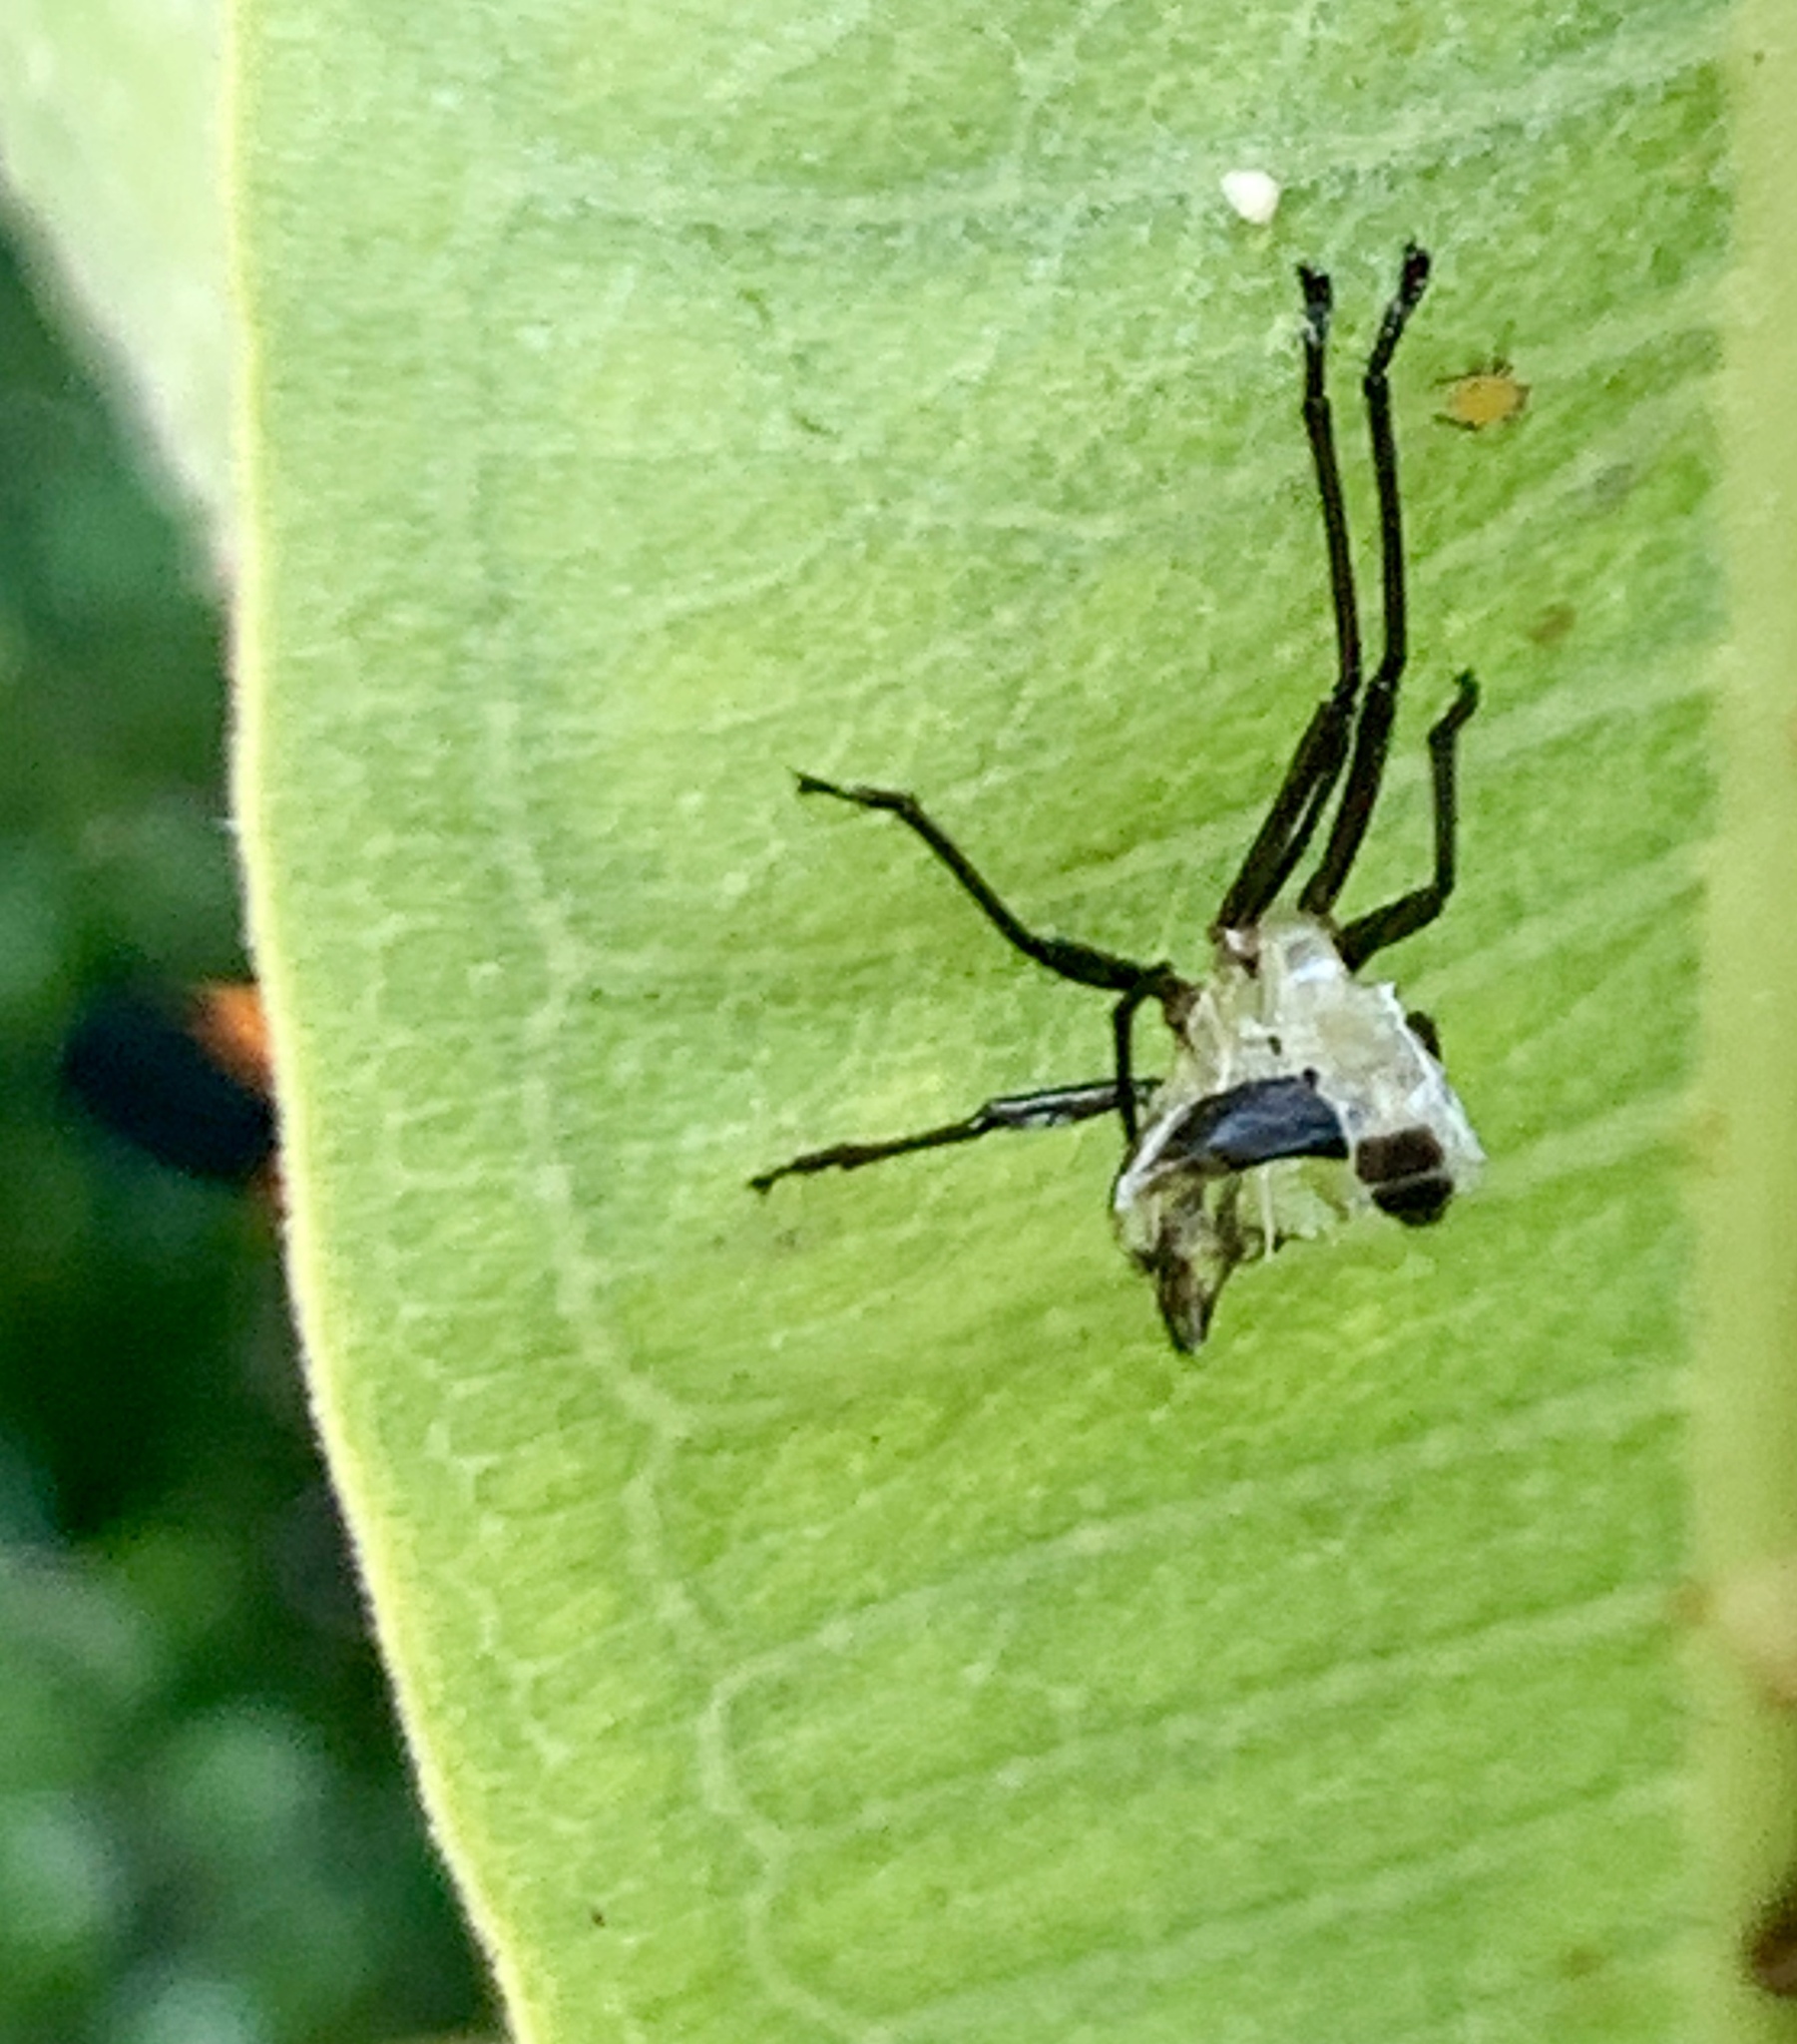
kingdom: Animalia
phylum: Arthropoda
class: Insecta
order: Hemiptera
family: Lygaeidae
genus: Oncopeltus
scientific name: Oncopeltus fasciatus
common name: Large milkweed bug
